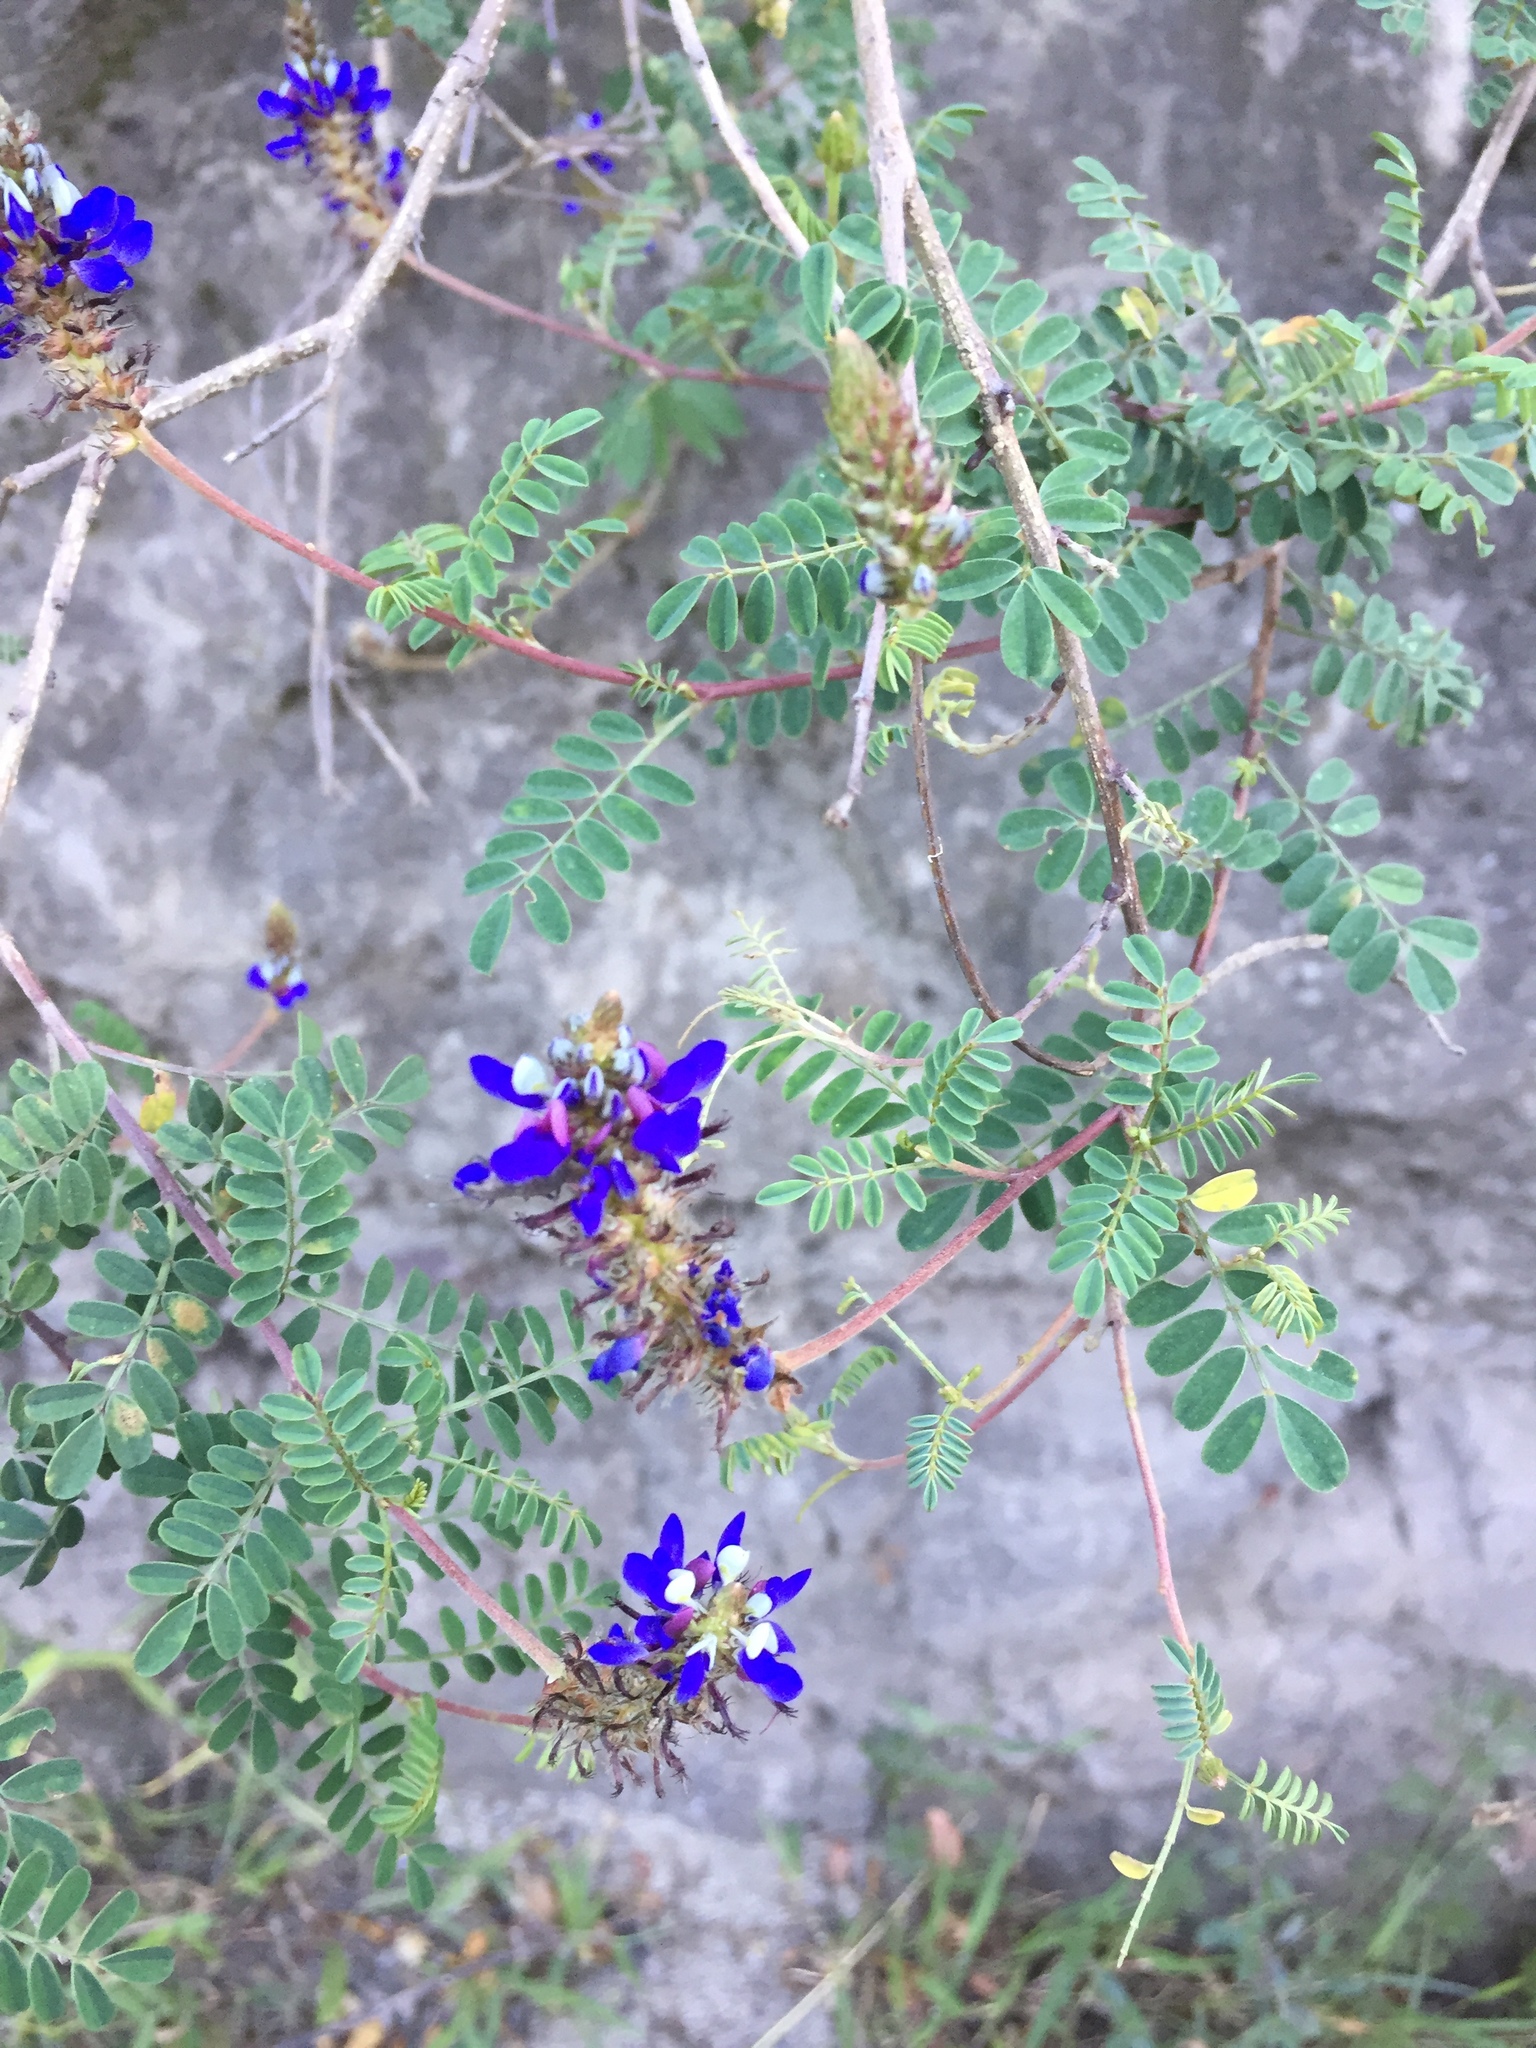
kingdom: Plantae
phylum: Tracheophyta
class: Magnoliopsida
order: Fabales
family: Fabaceae
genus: Dalea
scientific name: Dalea coerulea
